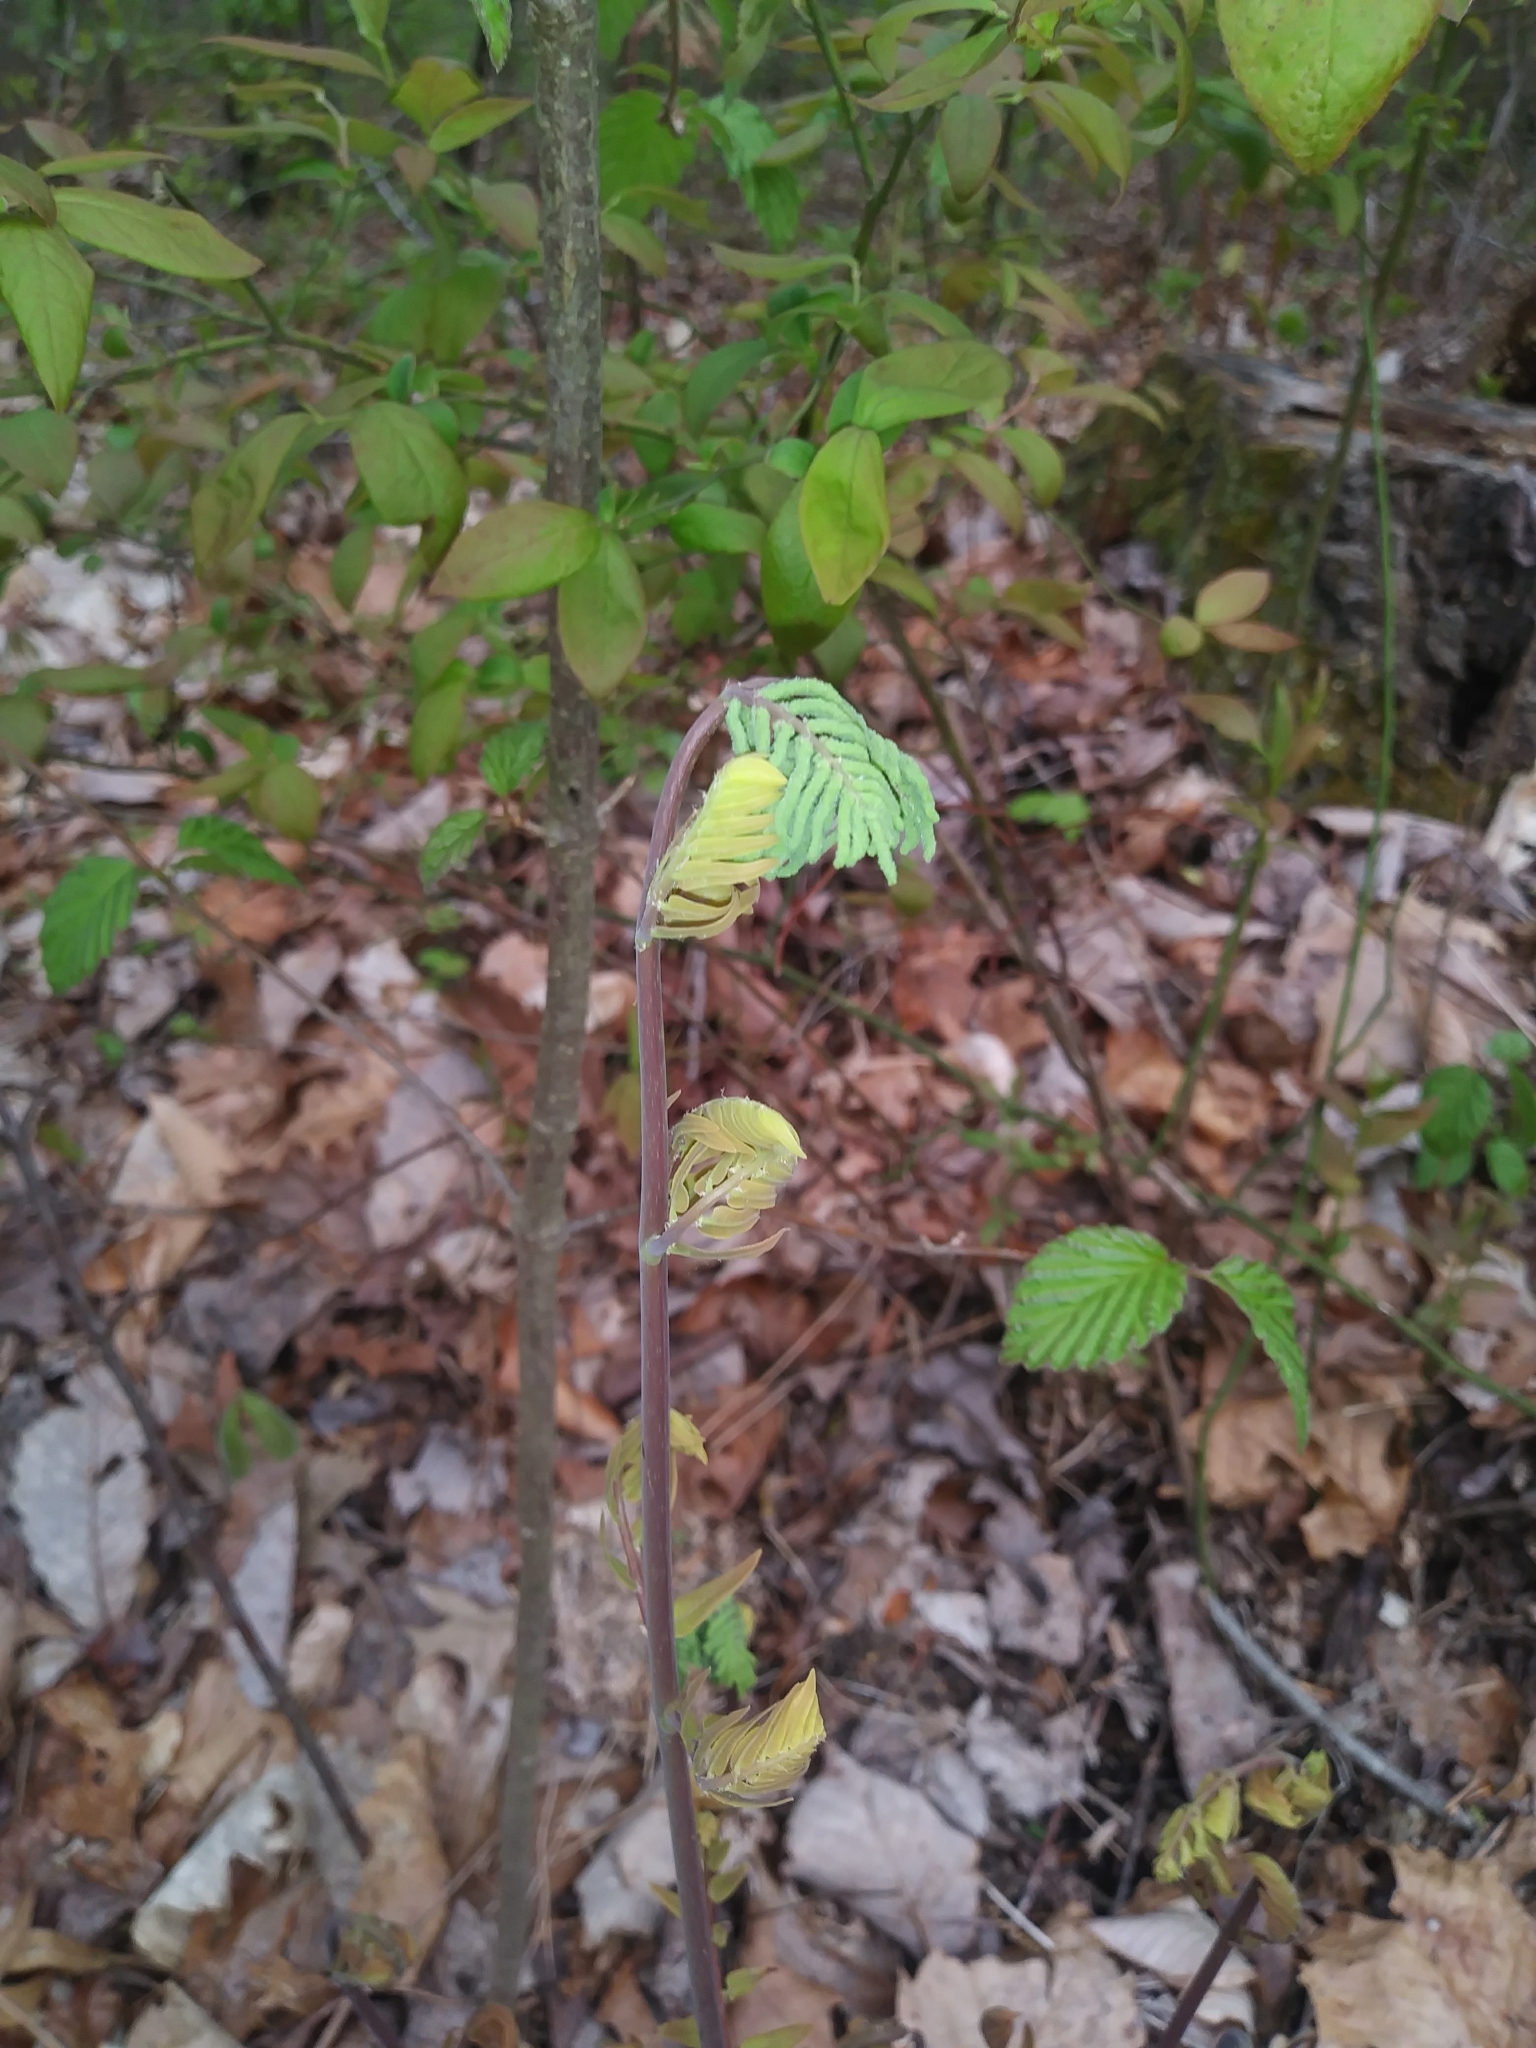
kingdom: Plantae
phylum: Tracheophyta
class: Polypodiopsida
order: Osmundales
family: Osmundaceae
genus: Osmunda
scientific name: Osmunda spectabilis
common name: American royal fern
